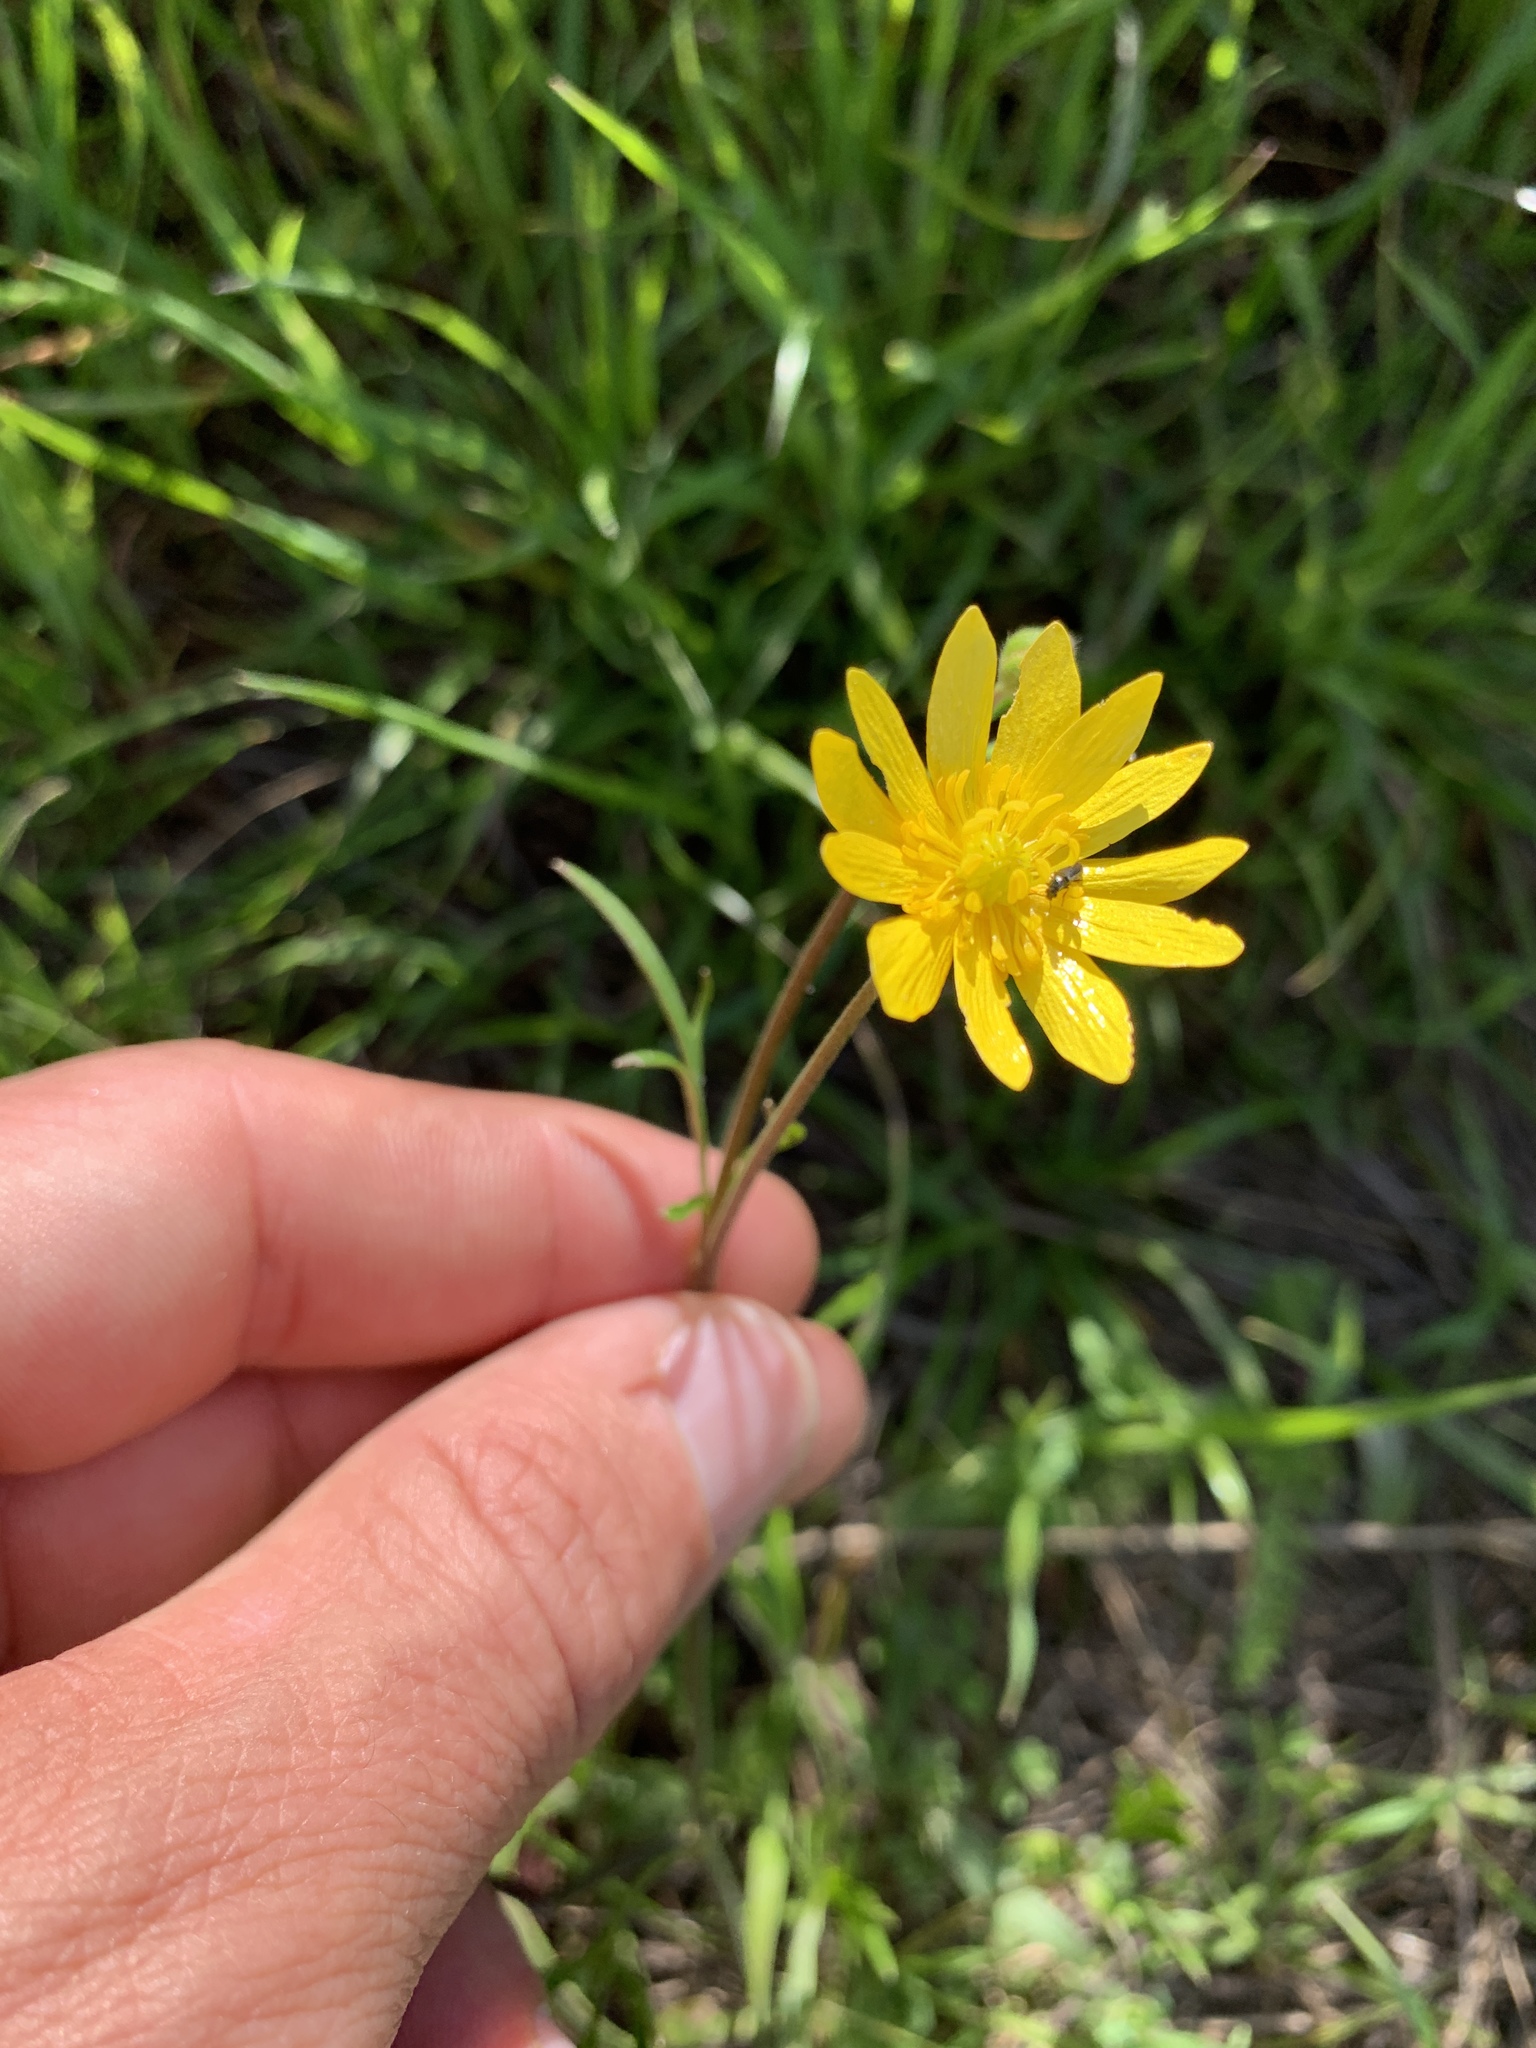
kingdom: Plantae
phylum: Tracheophyta
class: Magnoliopsida
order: Ranunculales
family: Ranunculaceae
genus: Ranunculus
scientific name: Ranunculus californicus
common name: California buttercup
